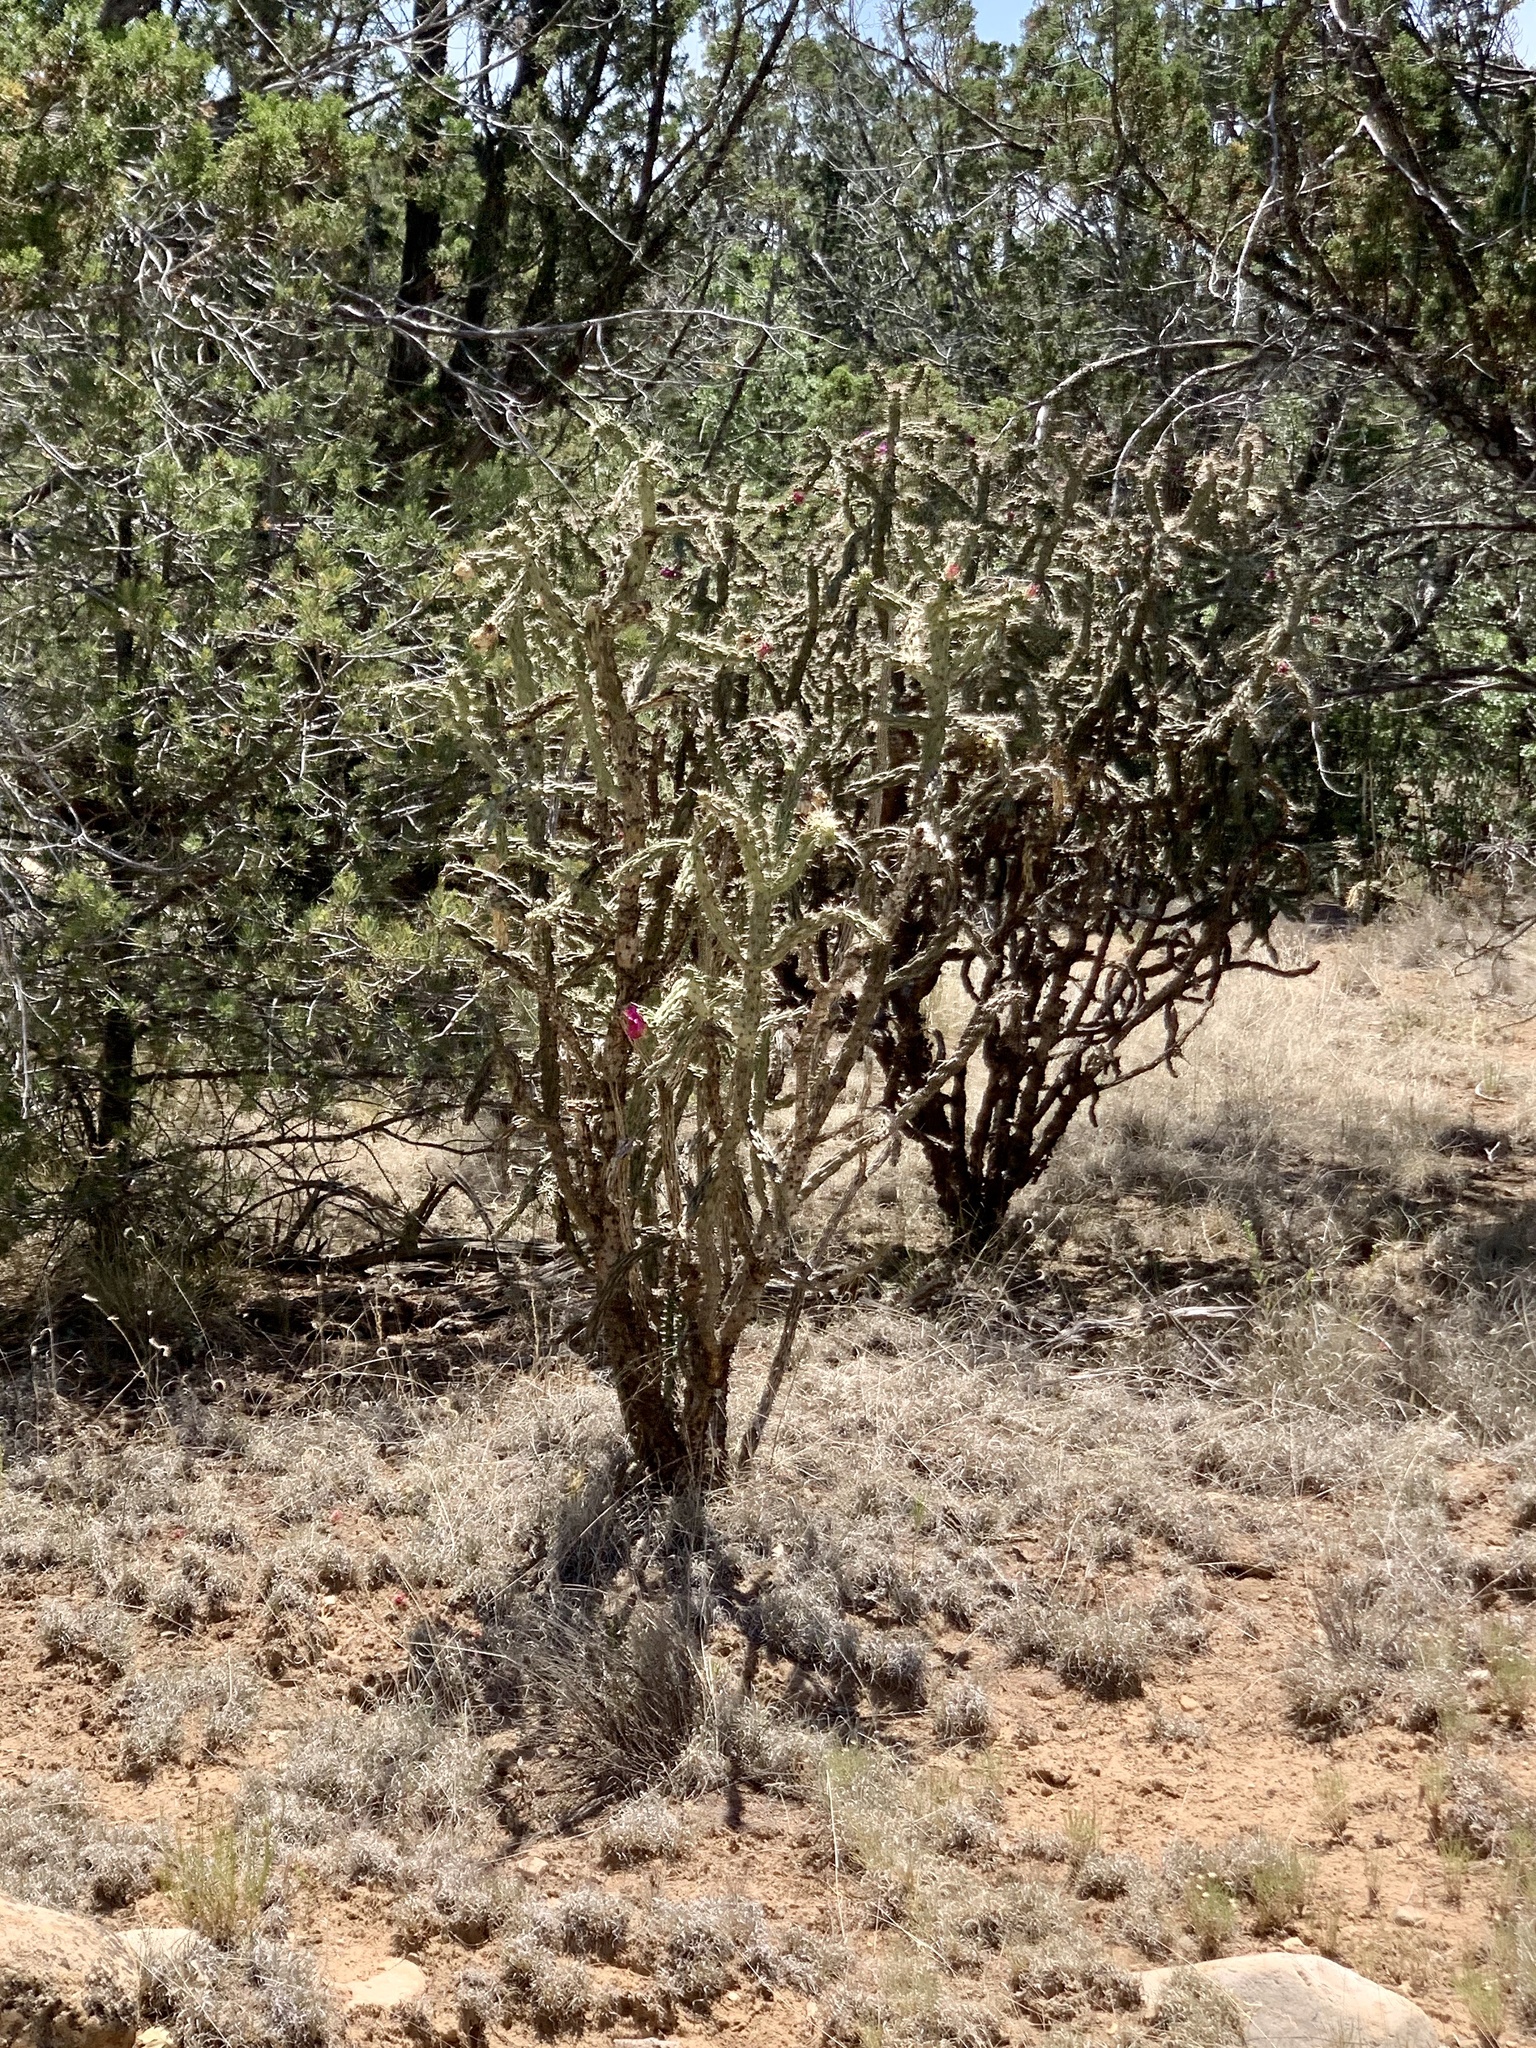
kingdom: Plantae
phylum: Tracheophyta
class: Magnoliopsida
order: Caryophyllales
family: Cactaceae
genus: Cylindropuntia
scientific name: Cylindropuntia imbricata
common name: Candelabrum cactus
